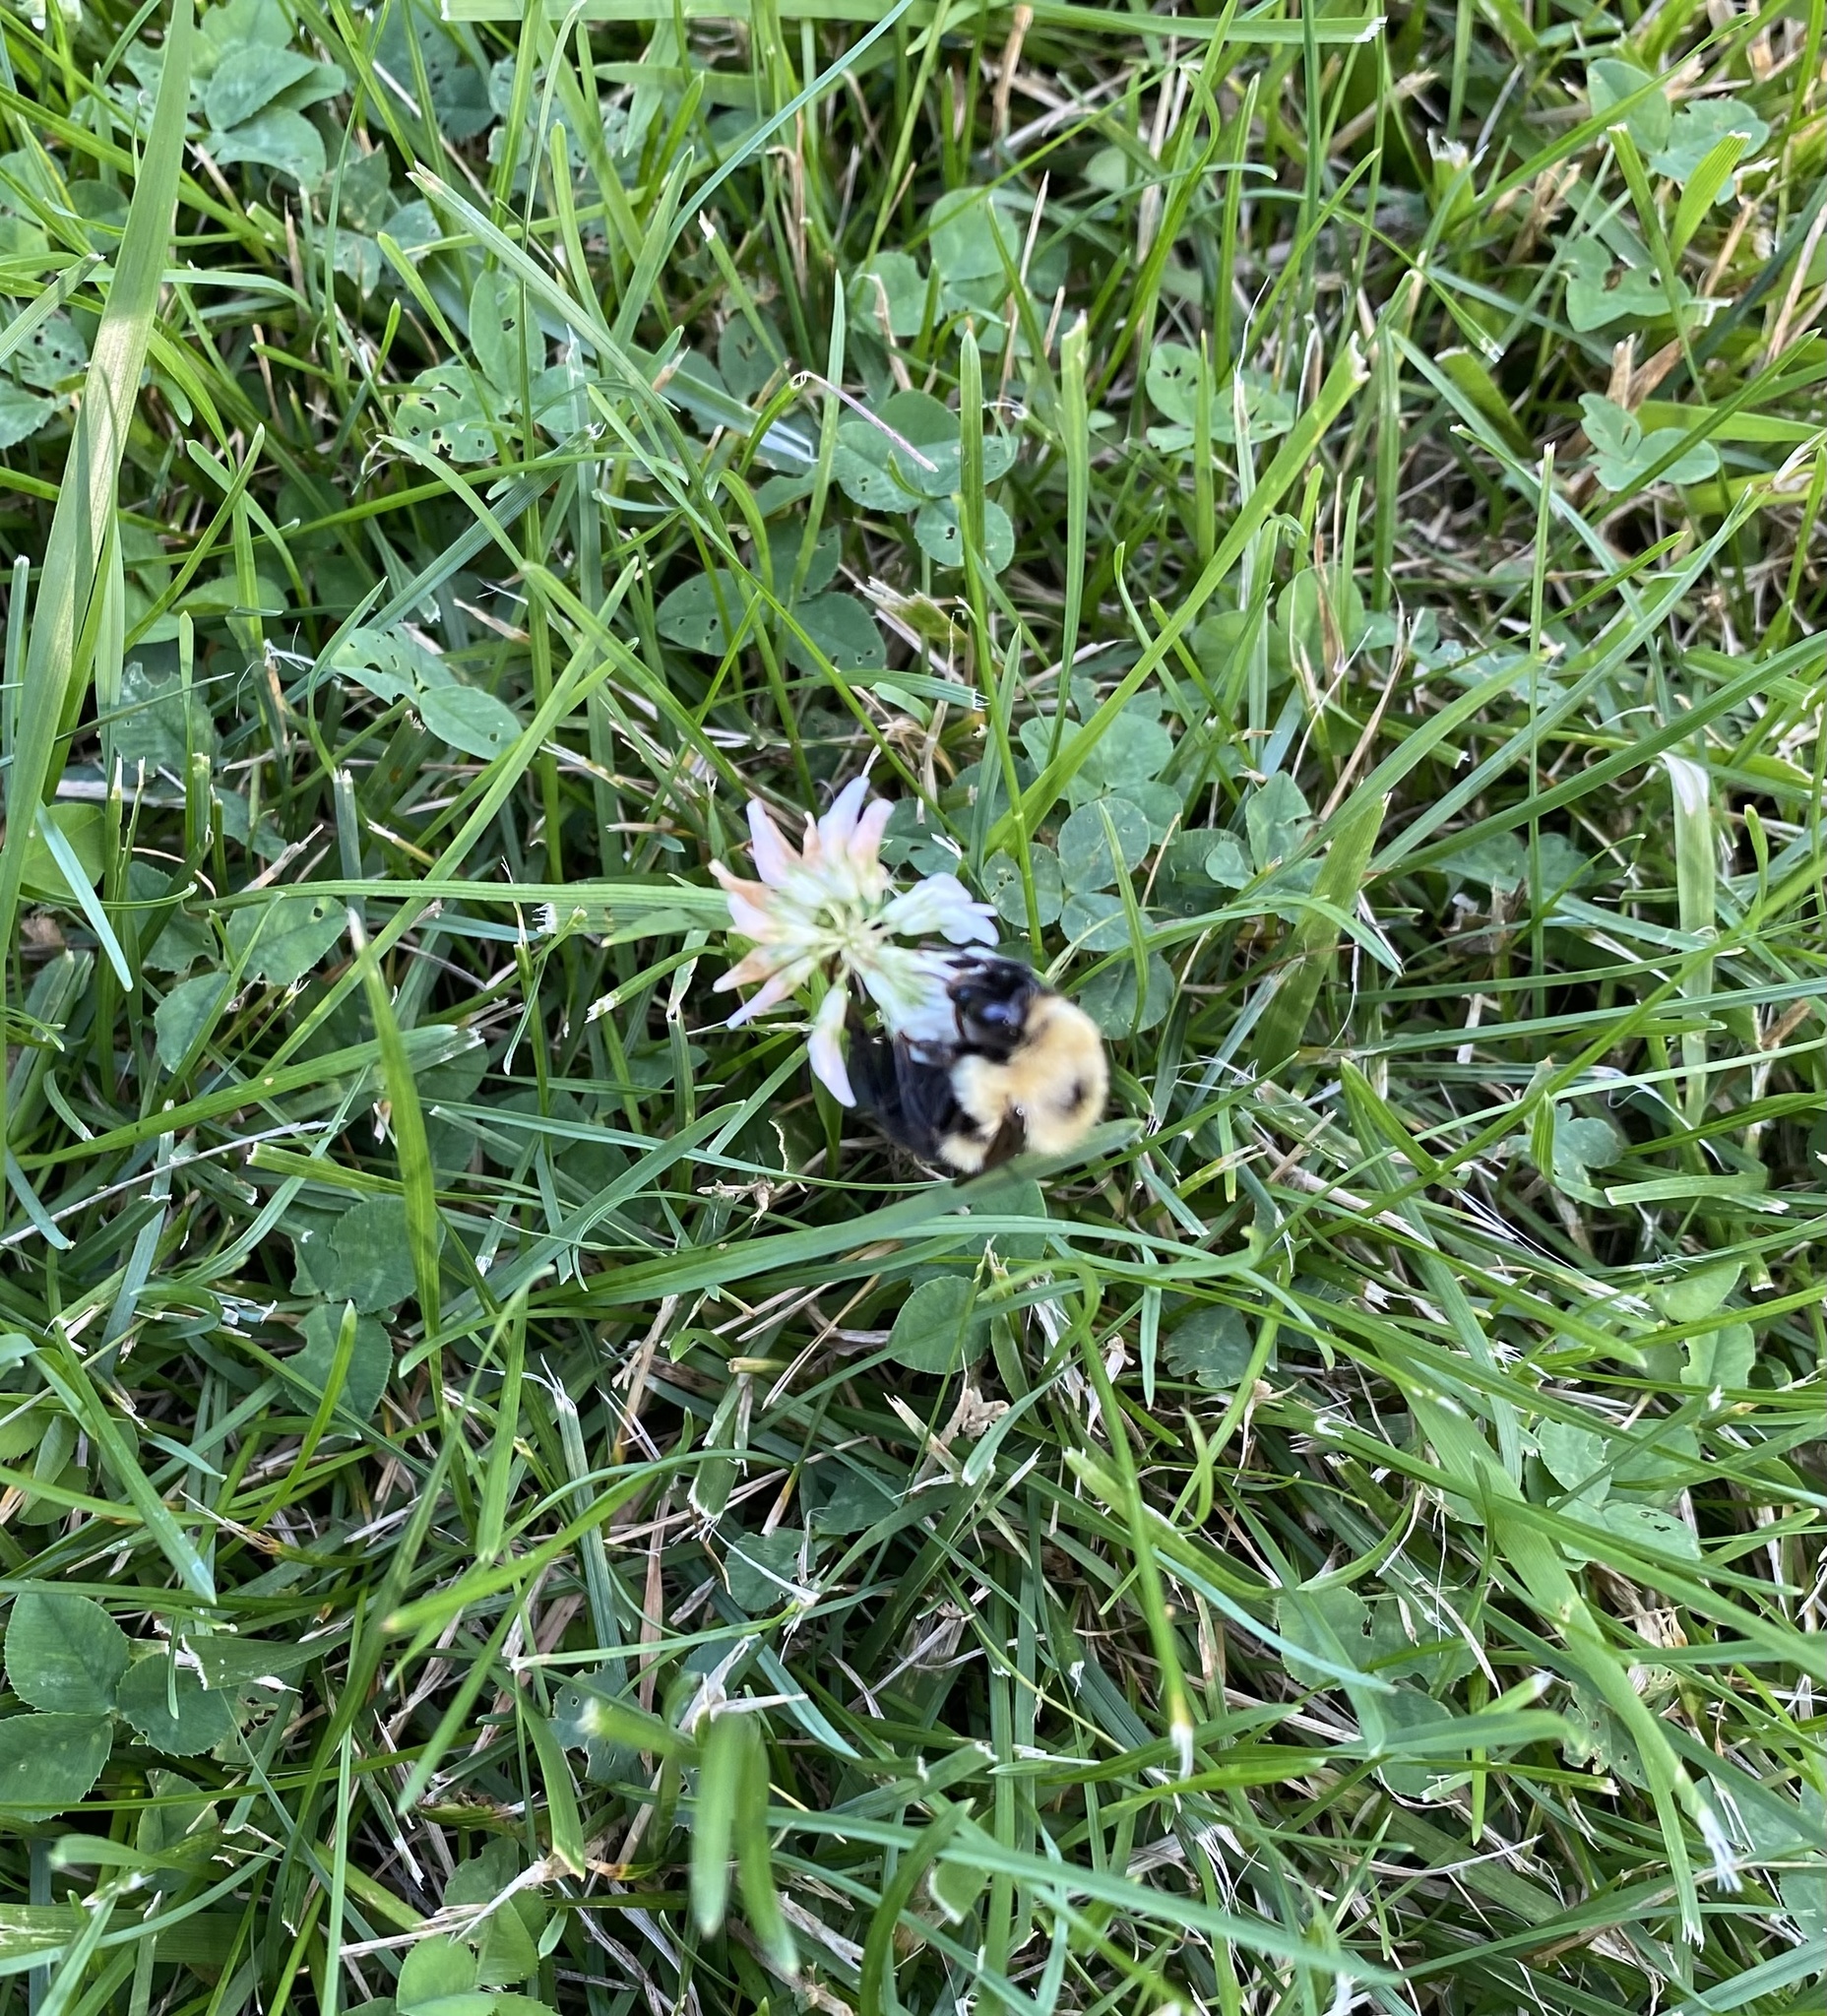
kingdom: Animalia
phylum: Arthropoda
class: Insecta
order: Hymenoptera
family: Apidae
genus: Bombus
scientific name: Bombus bimaculatus
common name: Two-spotted bumble bee
